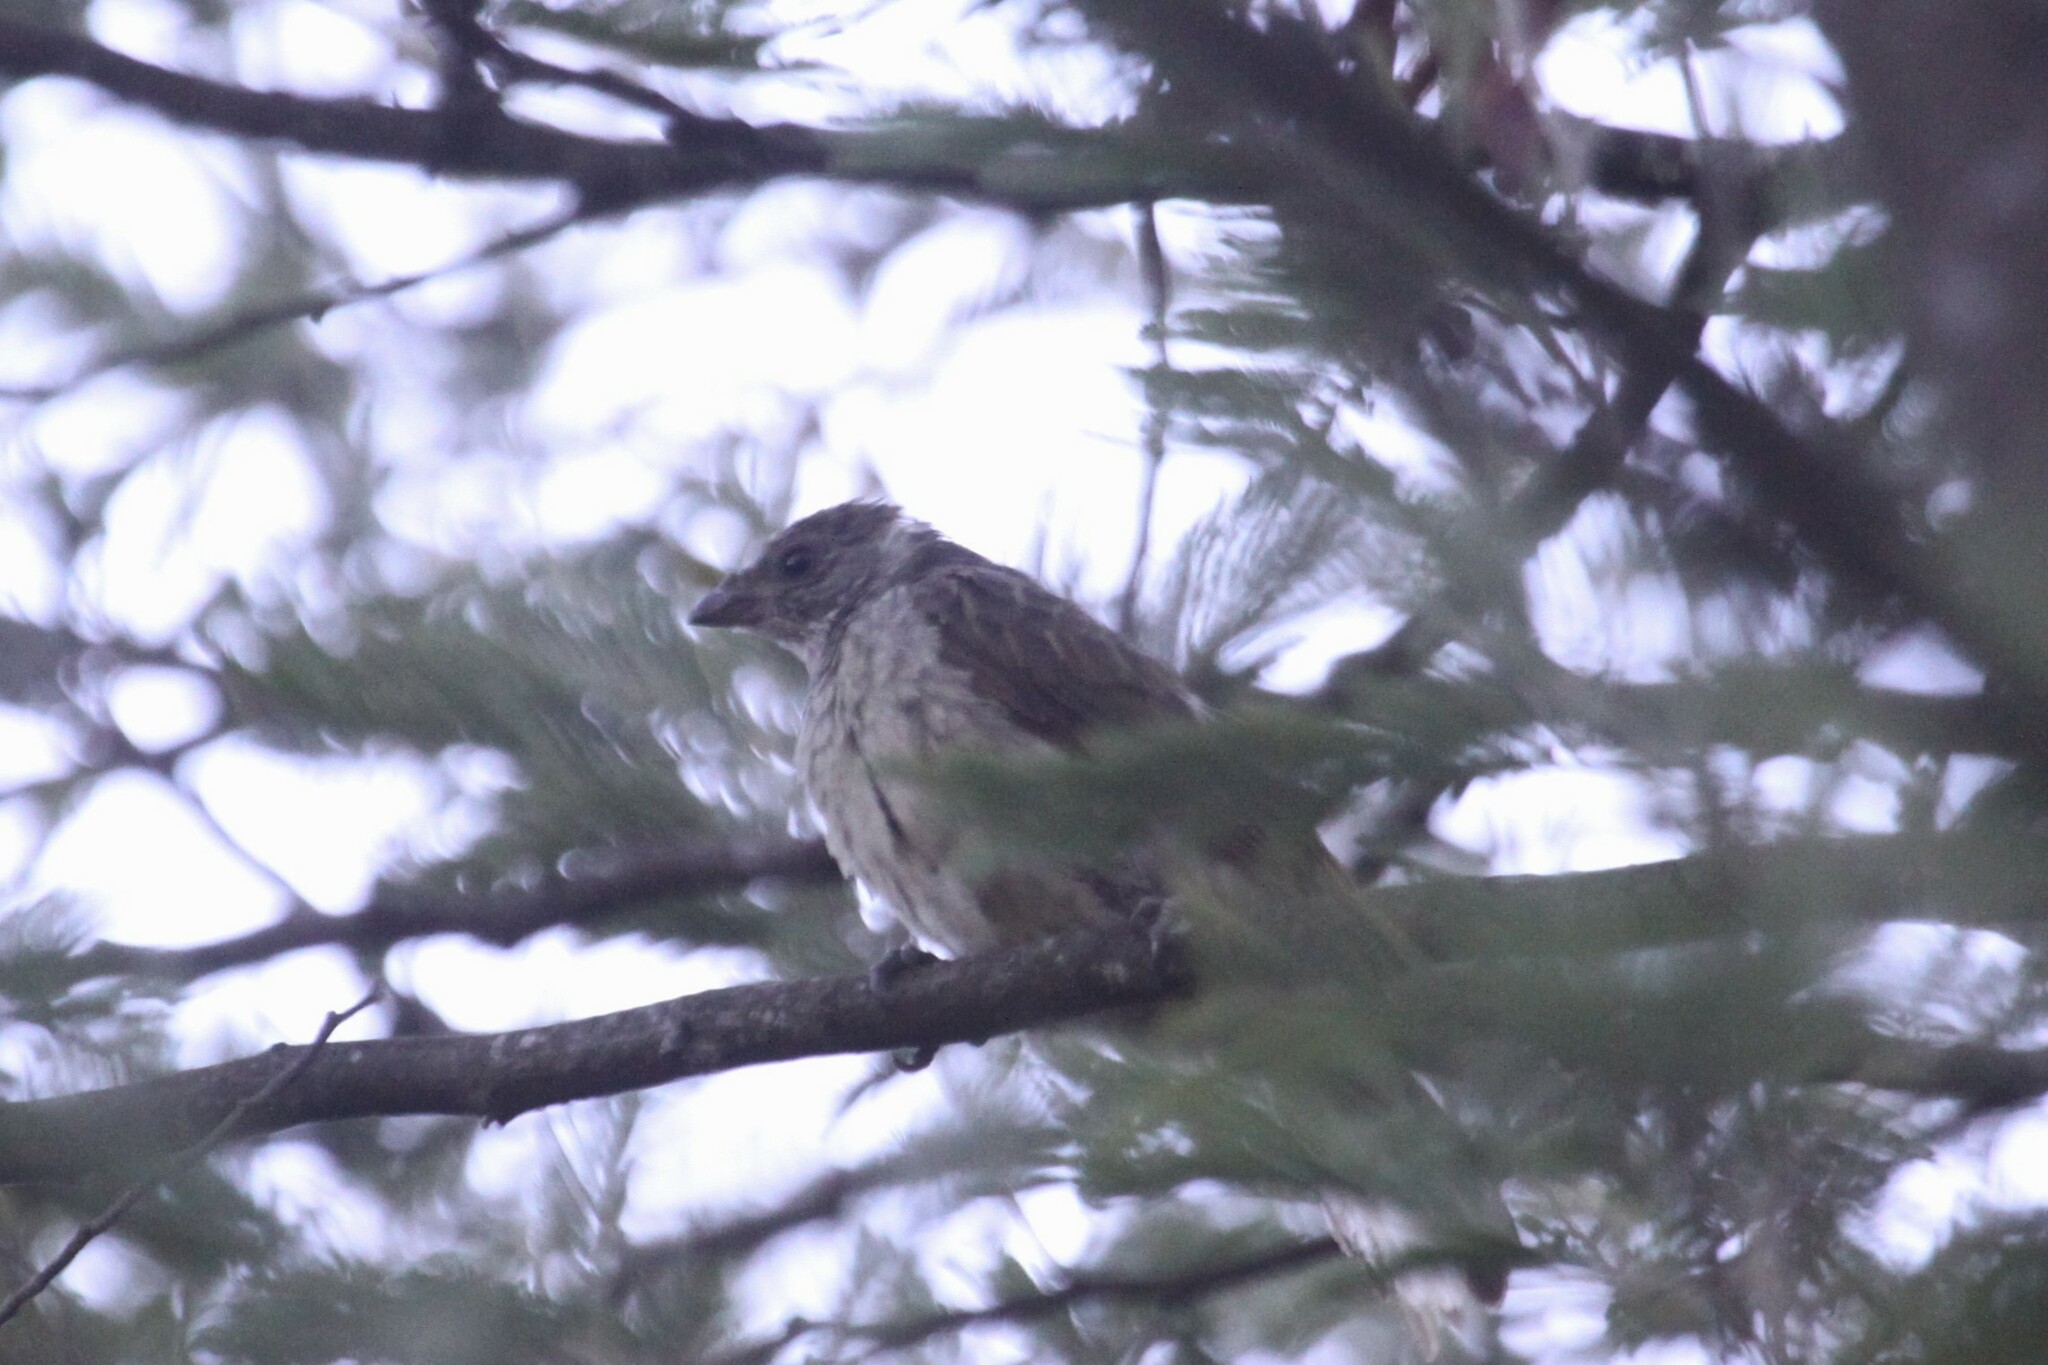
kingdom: Animalia
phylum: Chordata
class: Aves
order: Piciformes
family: Indicatoridae
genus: Indicator
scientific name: Indicator variegatus
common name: Scaly-throated honeyguide
